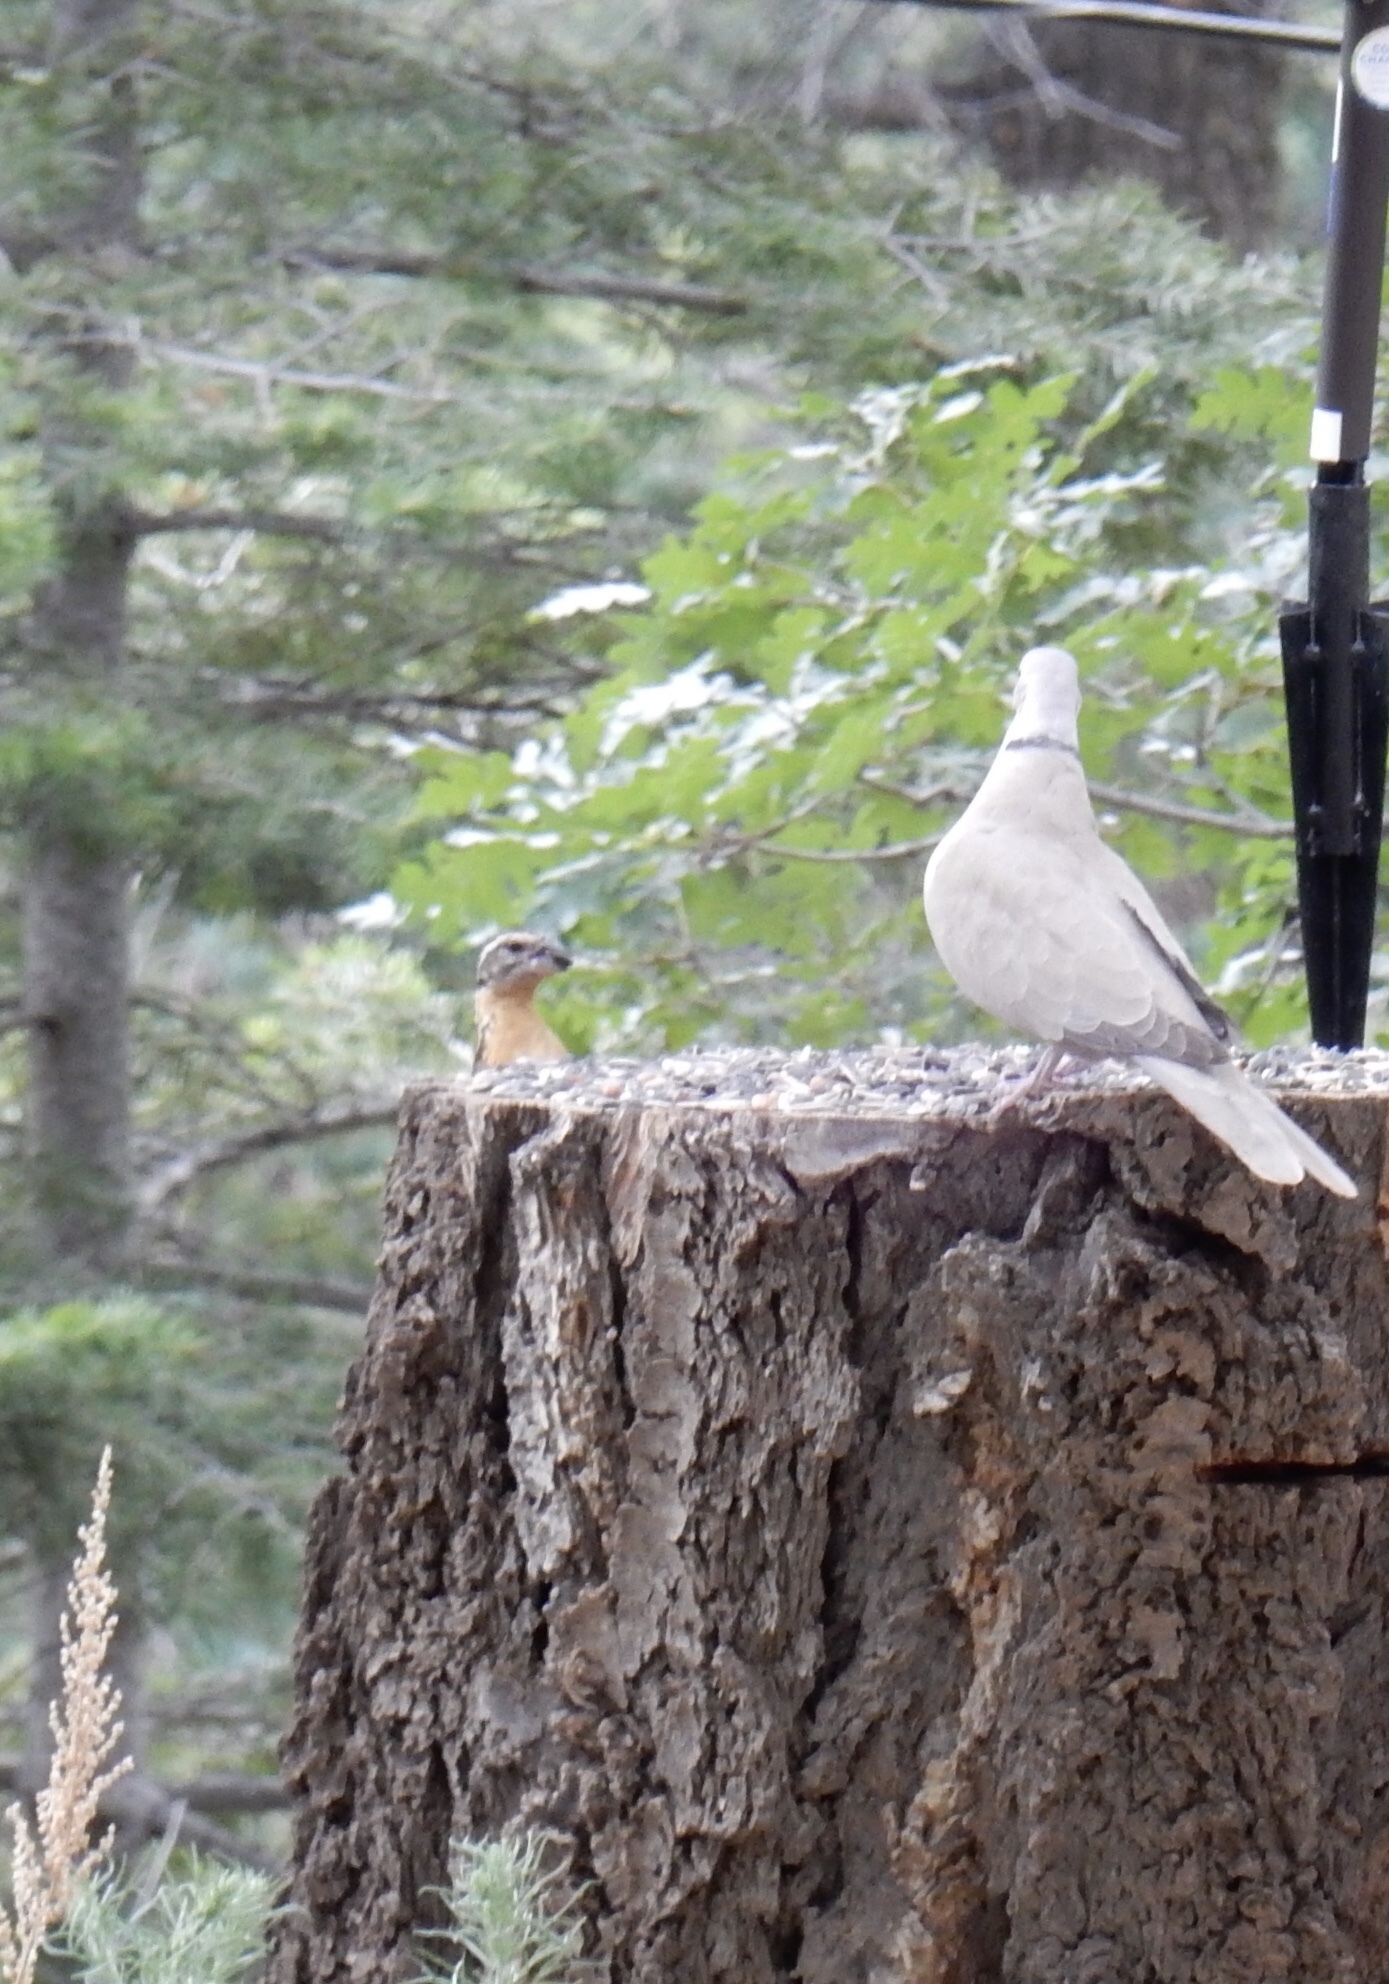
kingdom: Animalia
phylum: Chordata
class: Aves
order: Passeriformes
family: Cardinalidae
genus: Pheucticus
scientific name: Pheucticus melanocephalus
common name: Black-headed grosbeak
